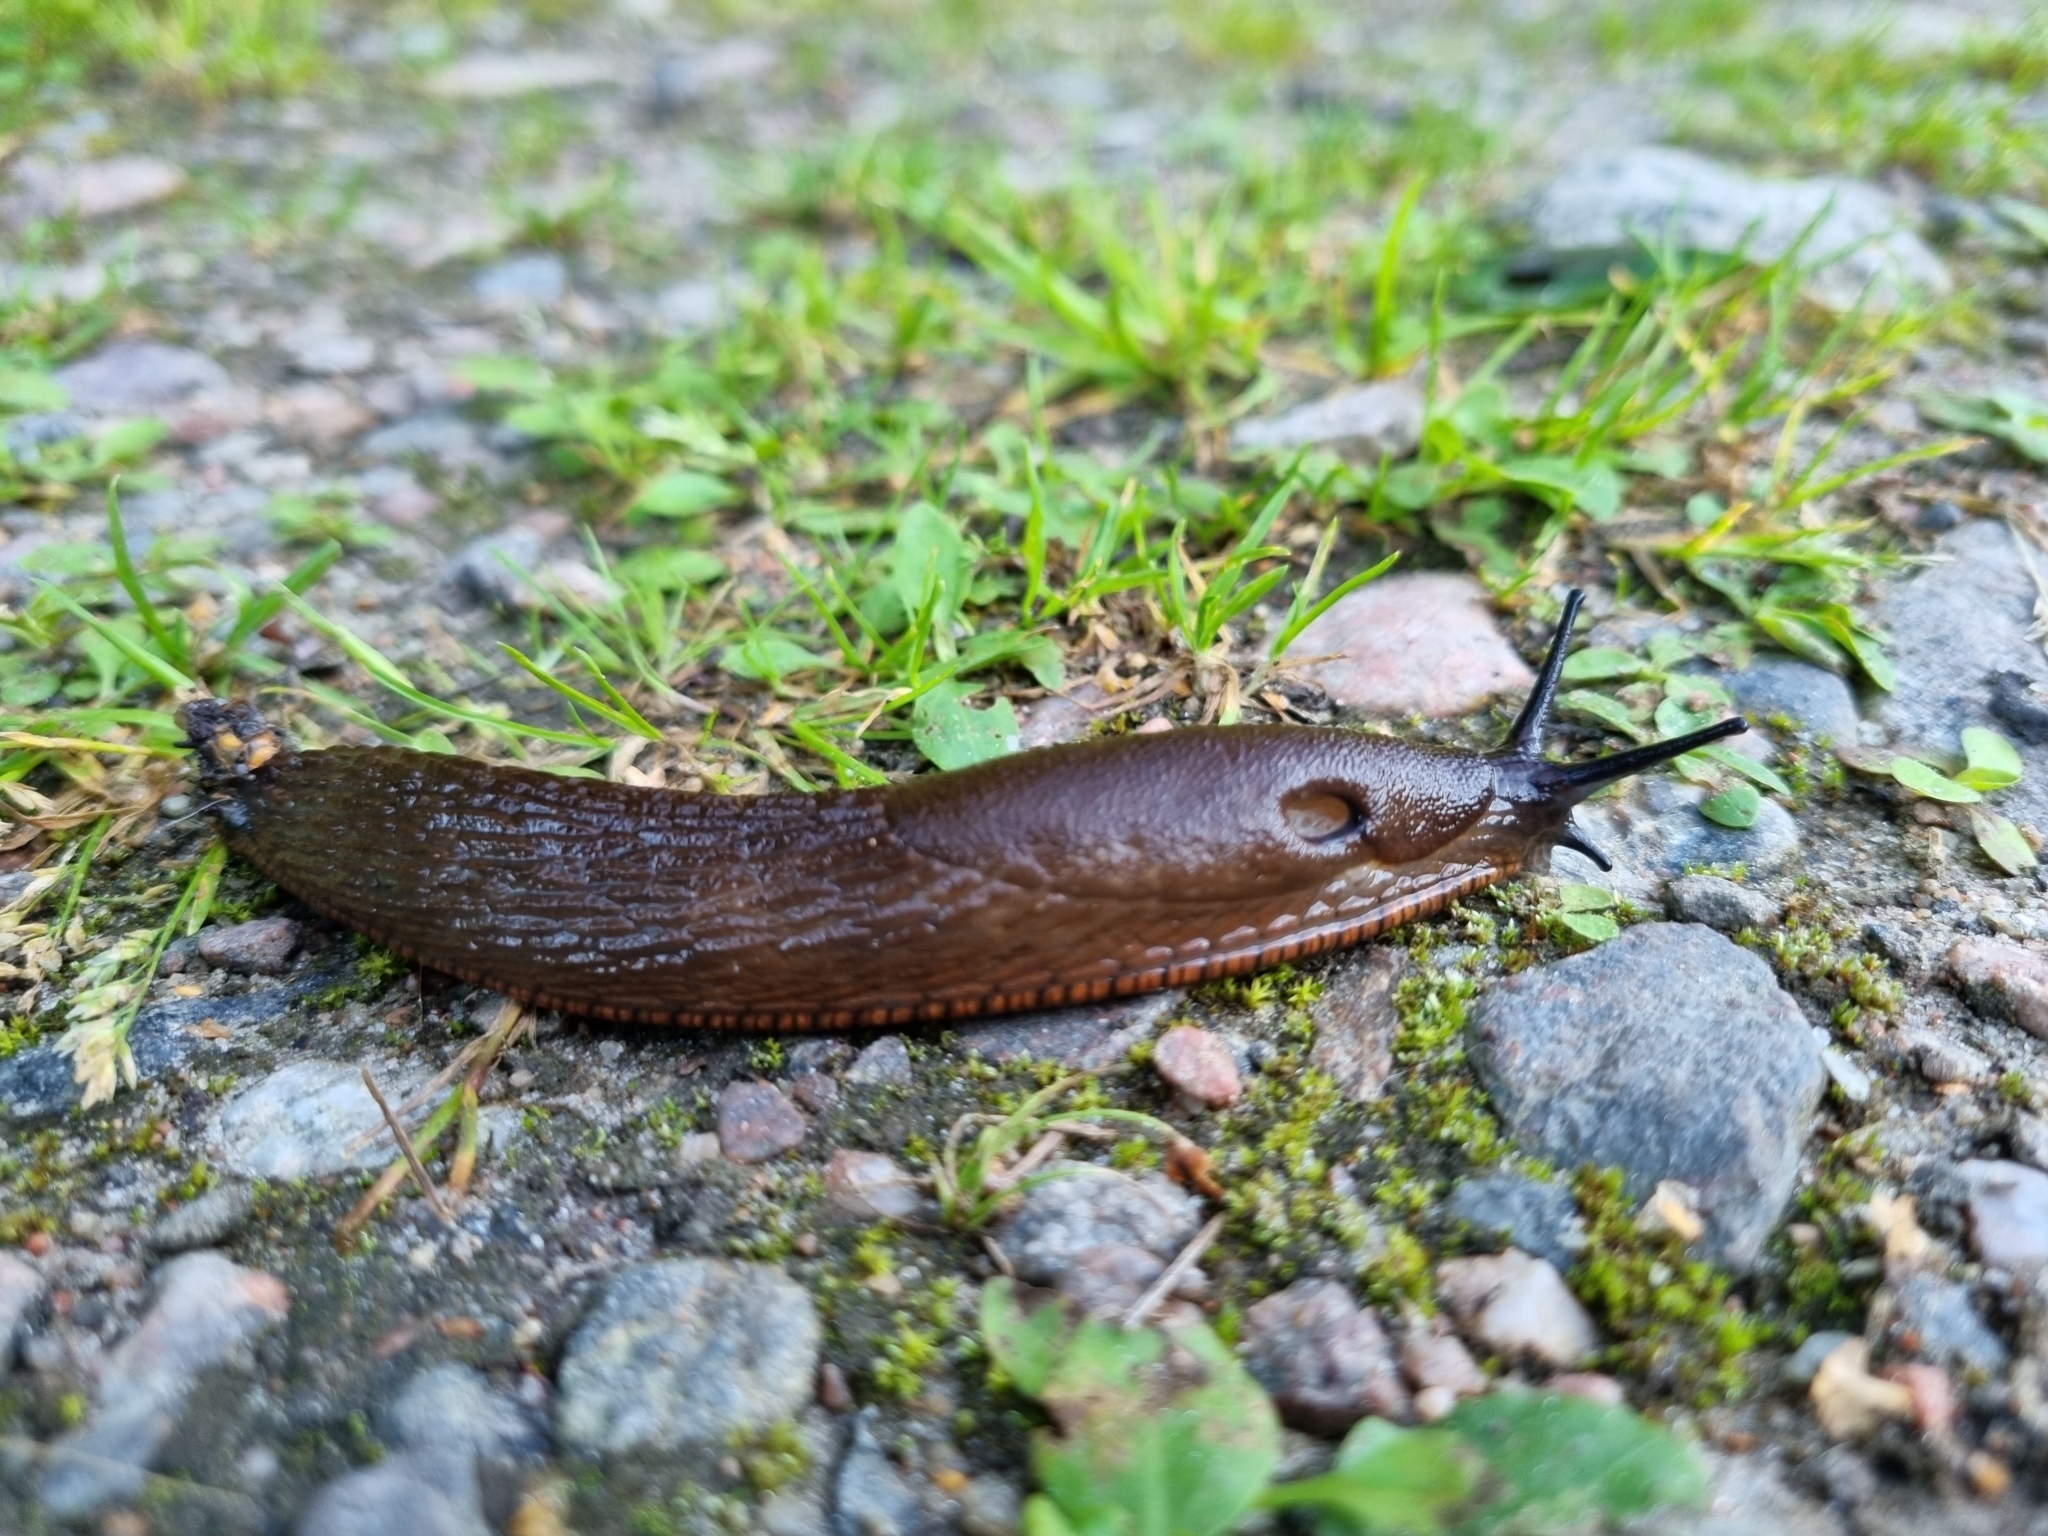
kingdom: Animalia
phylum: Mollusca
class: Gastropoda
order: Stylommatophora
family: Arionidae
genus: Arion
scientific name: Arion vulgaris
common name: Lusitanian slug
